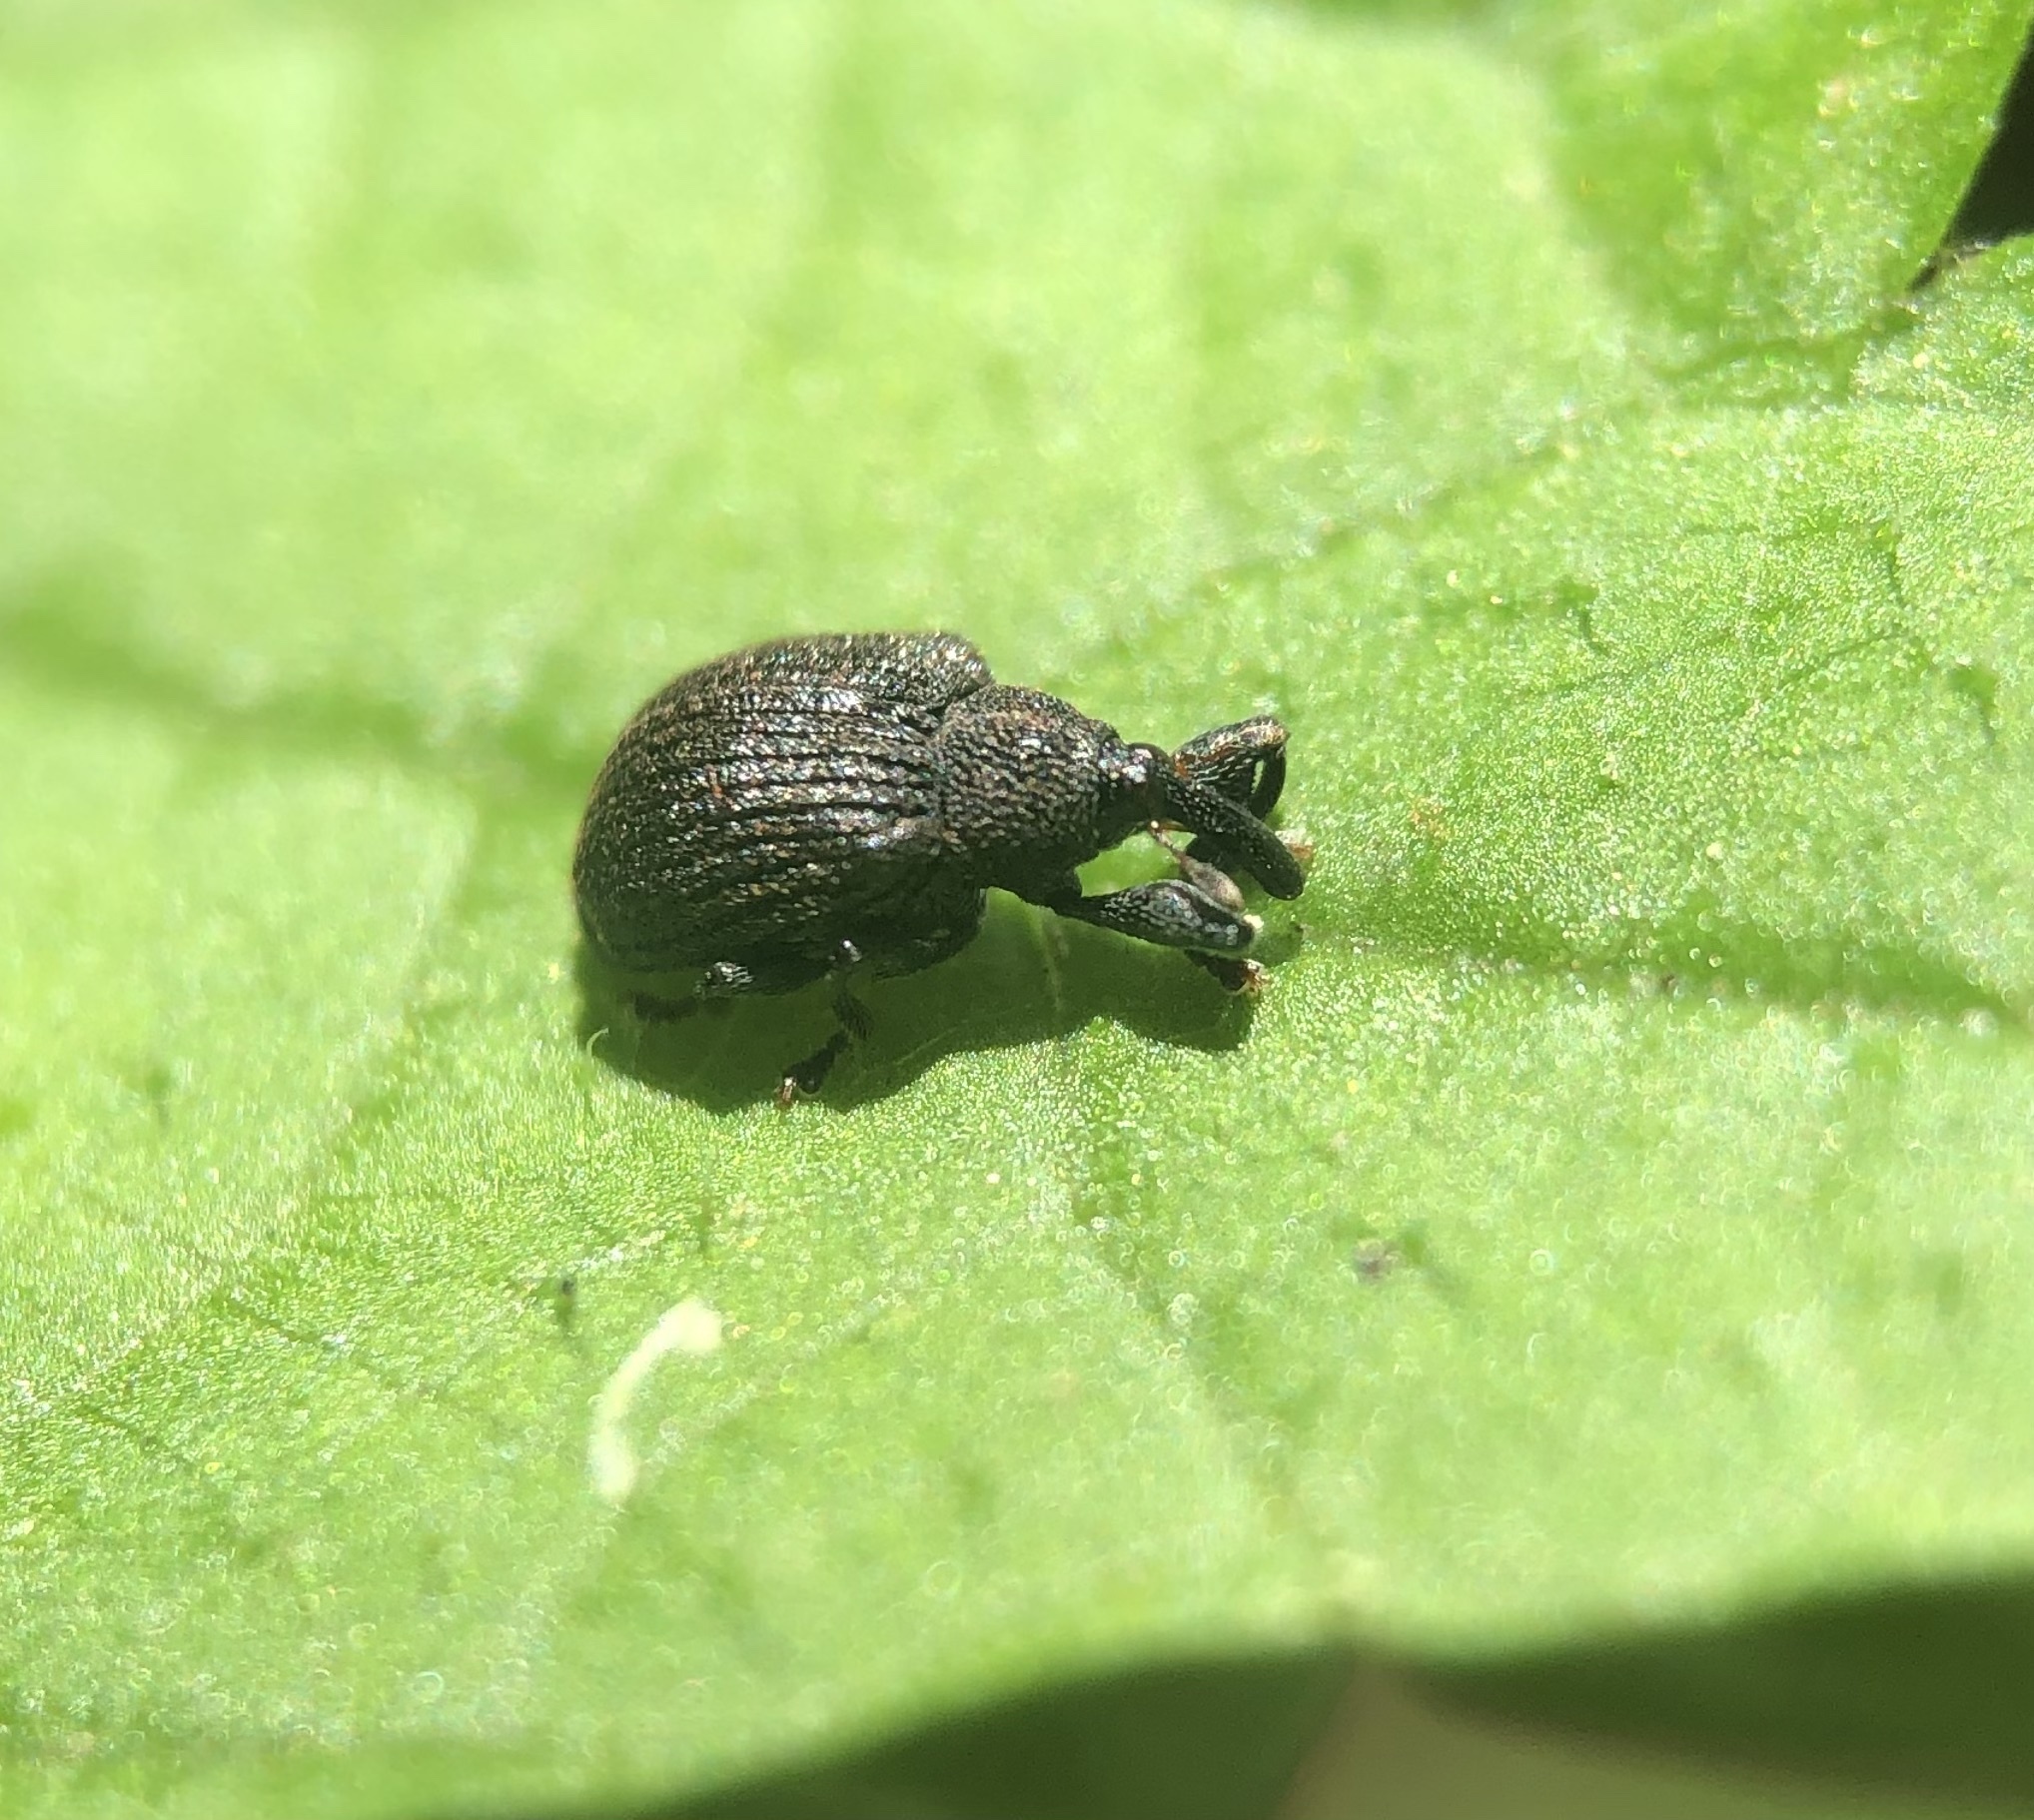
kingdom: Animalia
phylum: Arthropoda
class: Insecta
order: Coleoptera
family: Curculionidae
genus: Odontopus
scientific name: Odontopus calceatus
